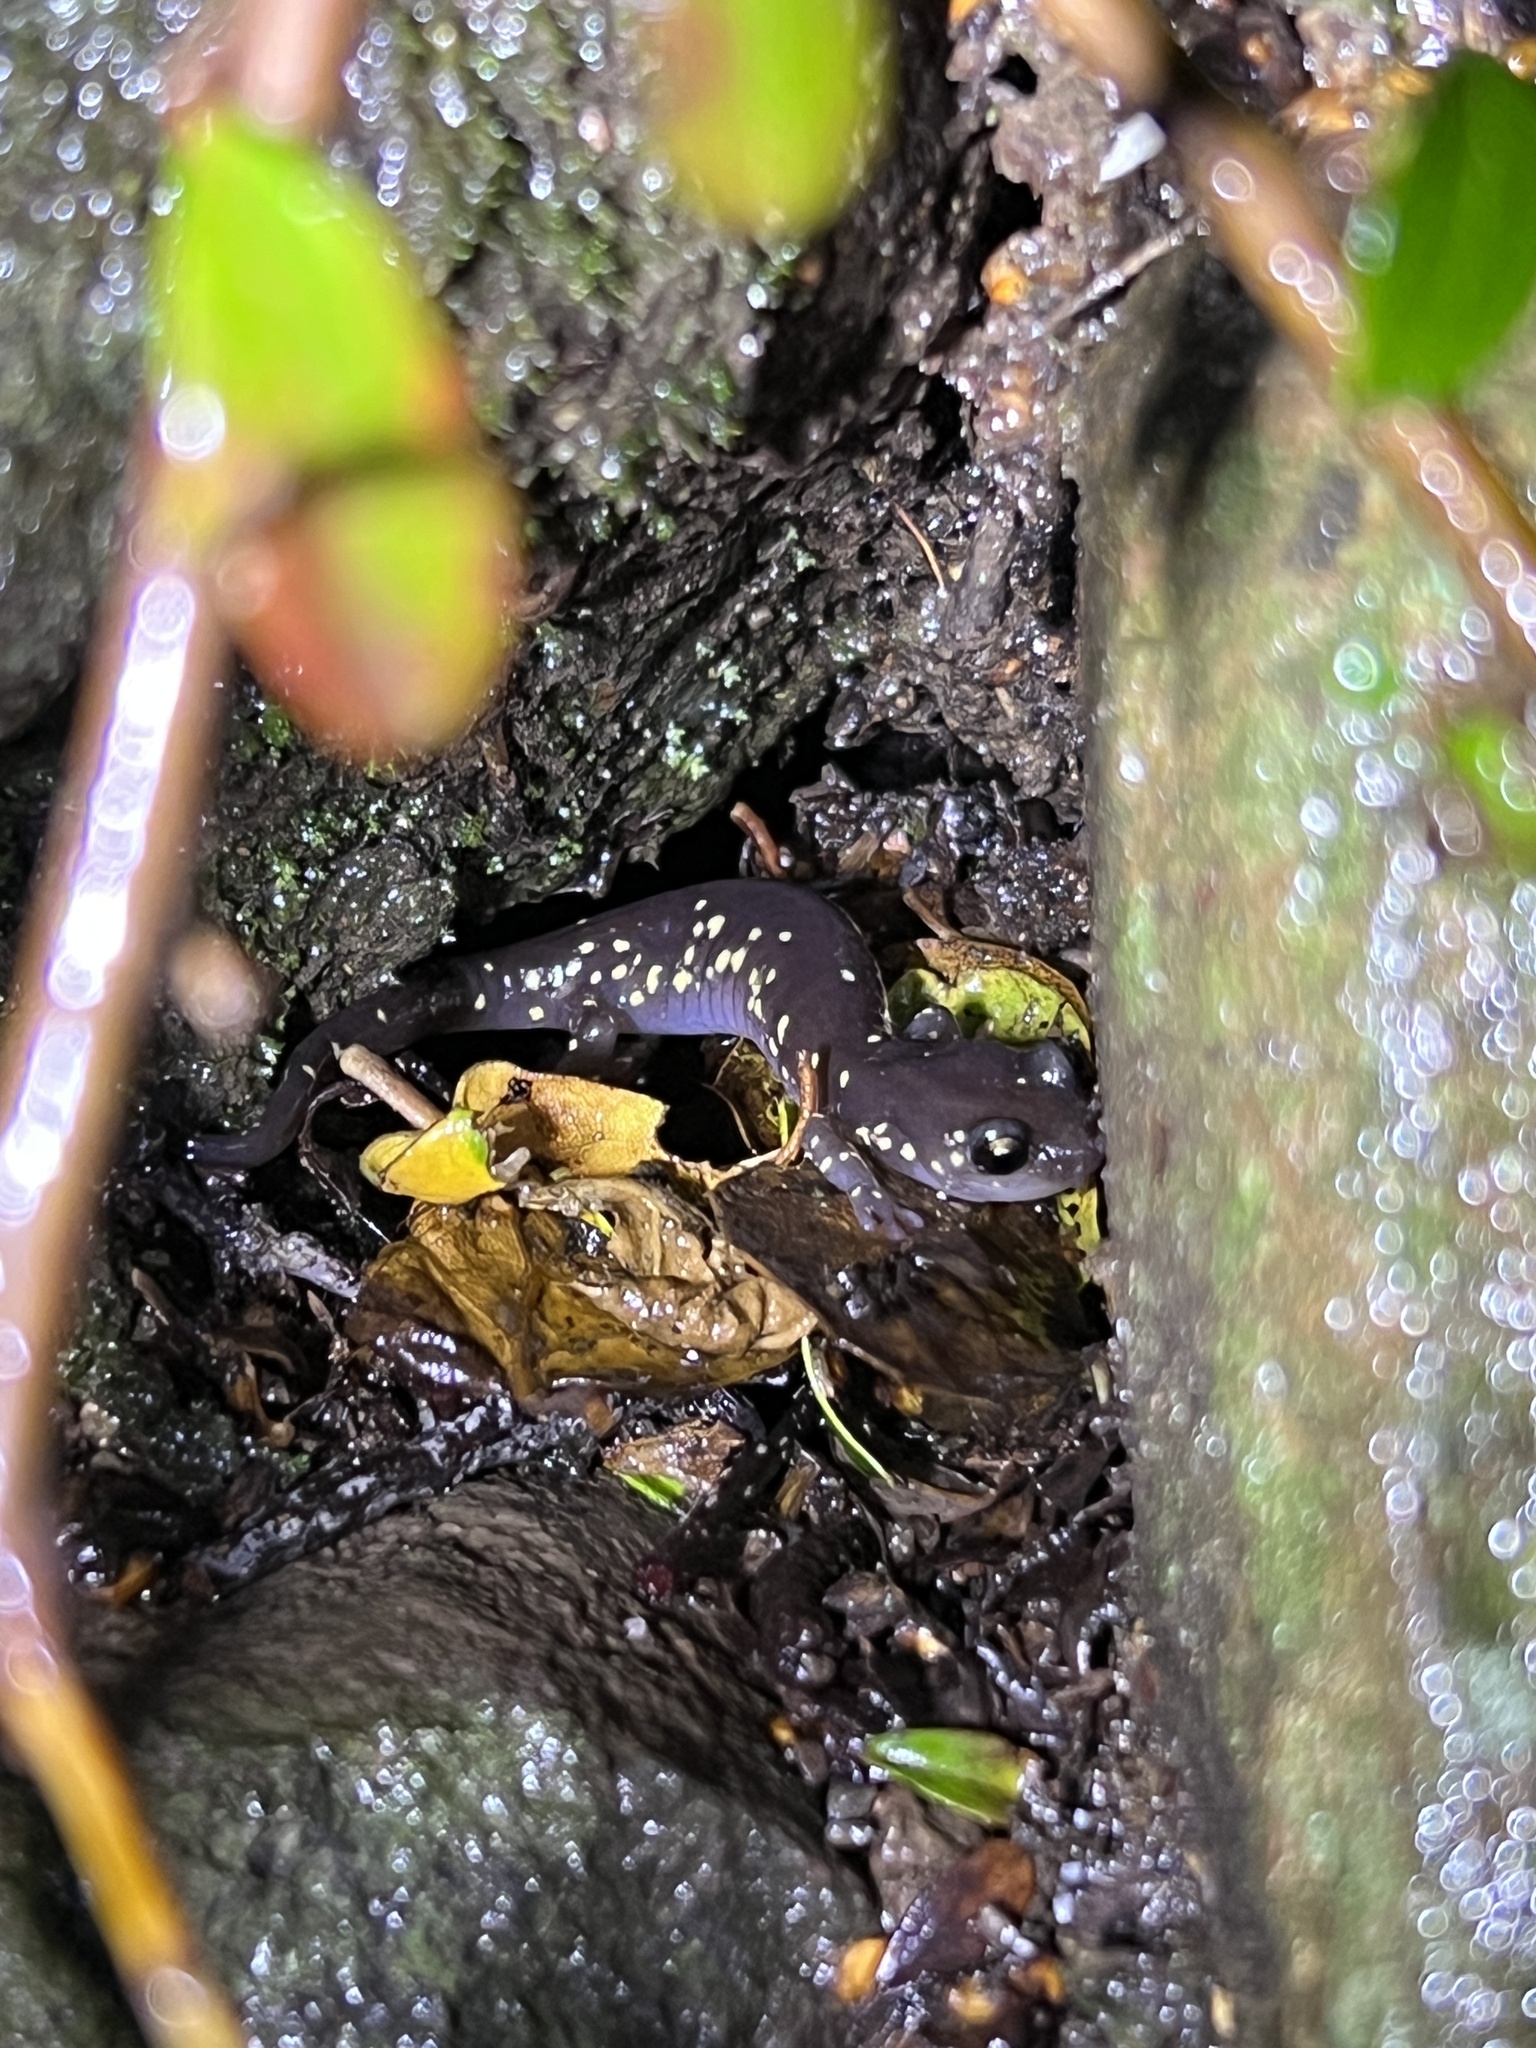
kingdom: Animalia
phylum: Chordata
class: Amphibia
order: Caudata
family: Plethodontidae
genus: Aneides
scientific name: Aneides lugubris
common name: Arboreal salamander
